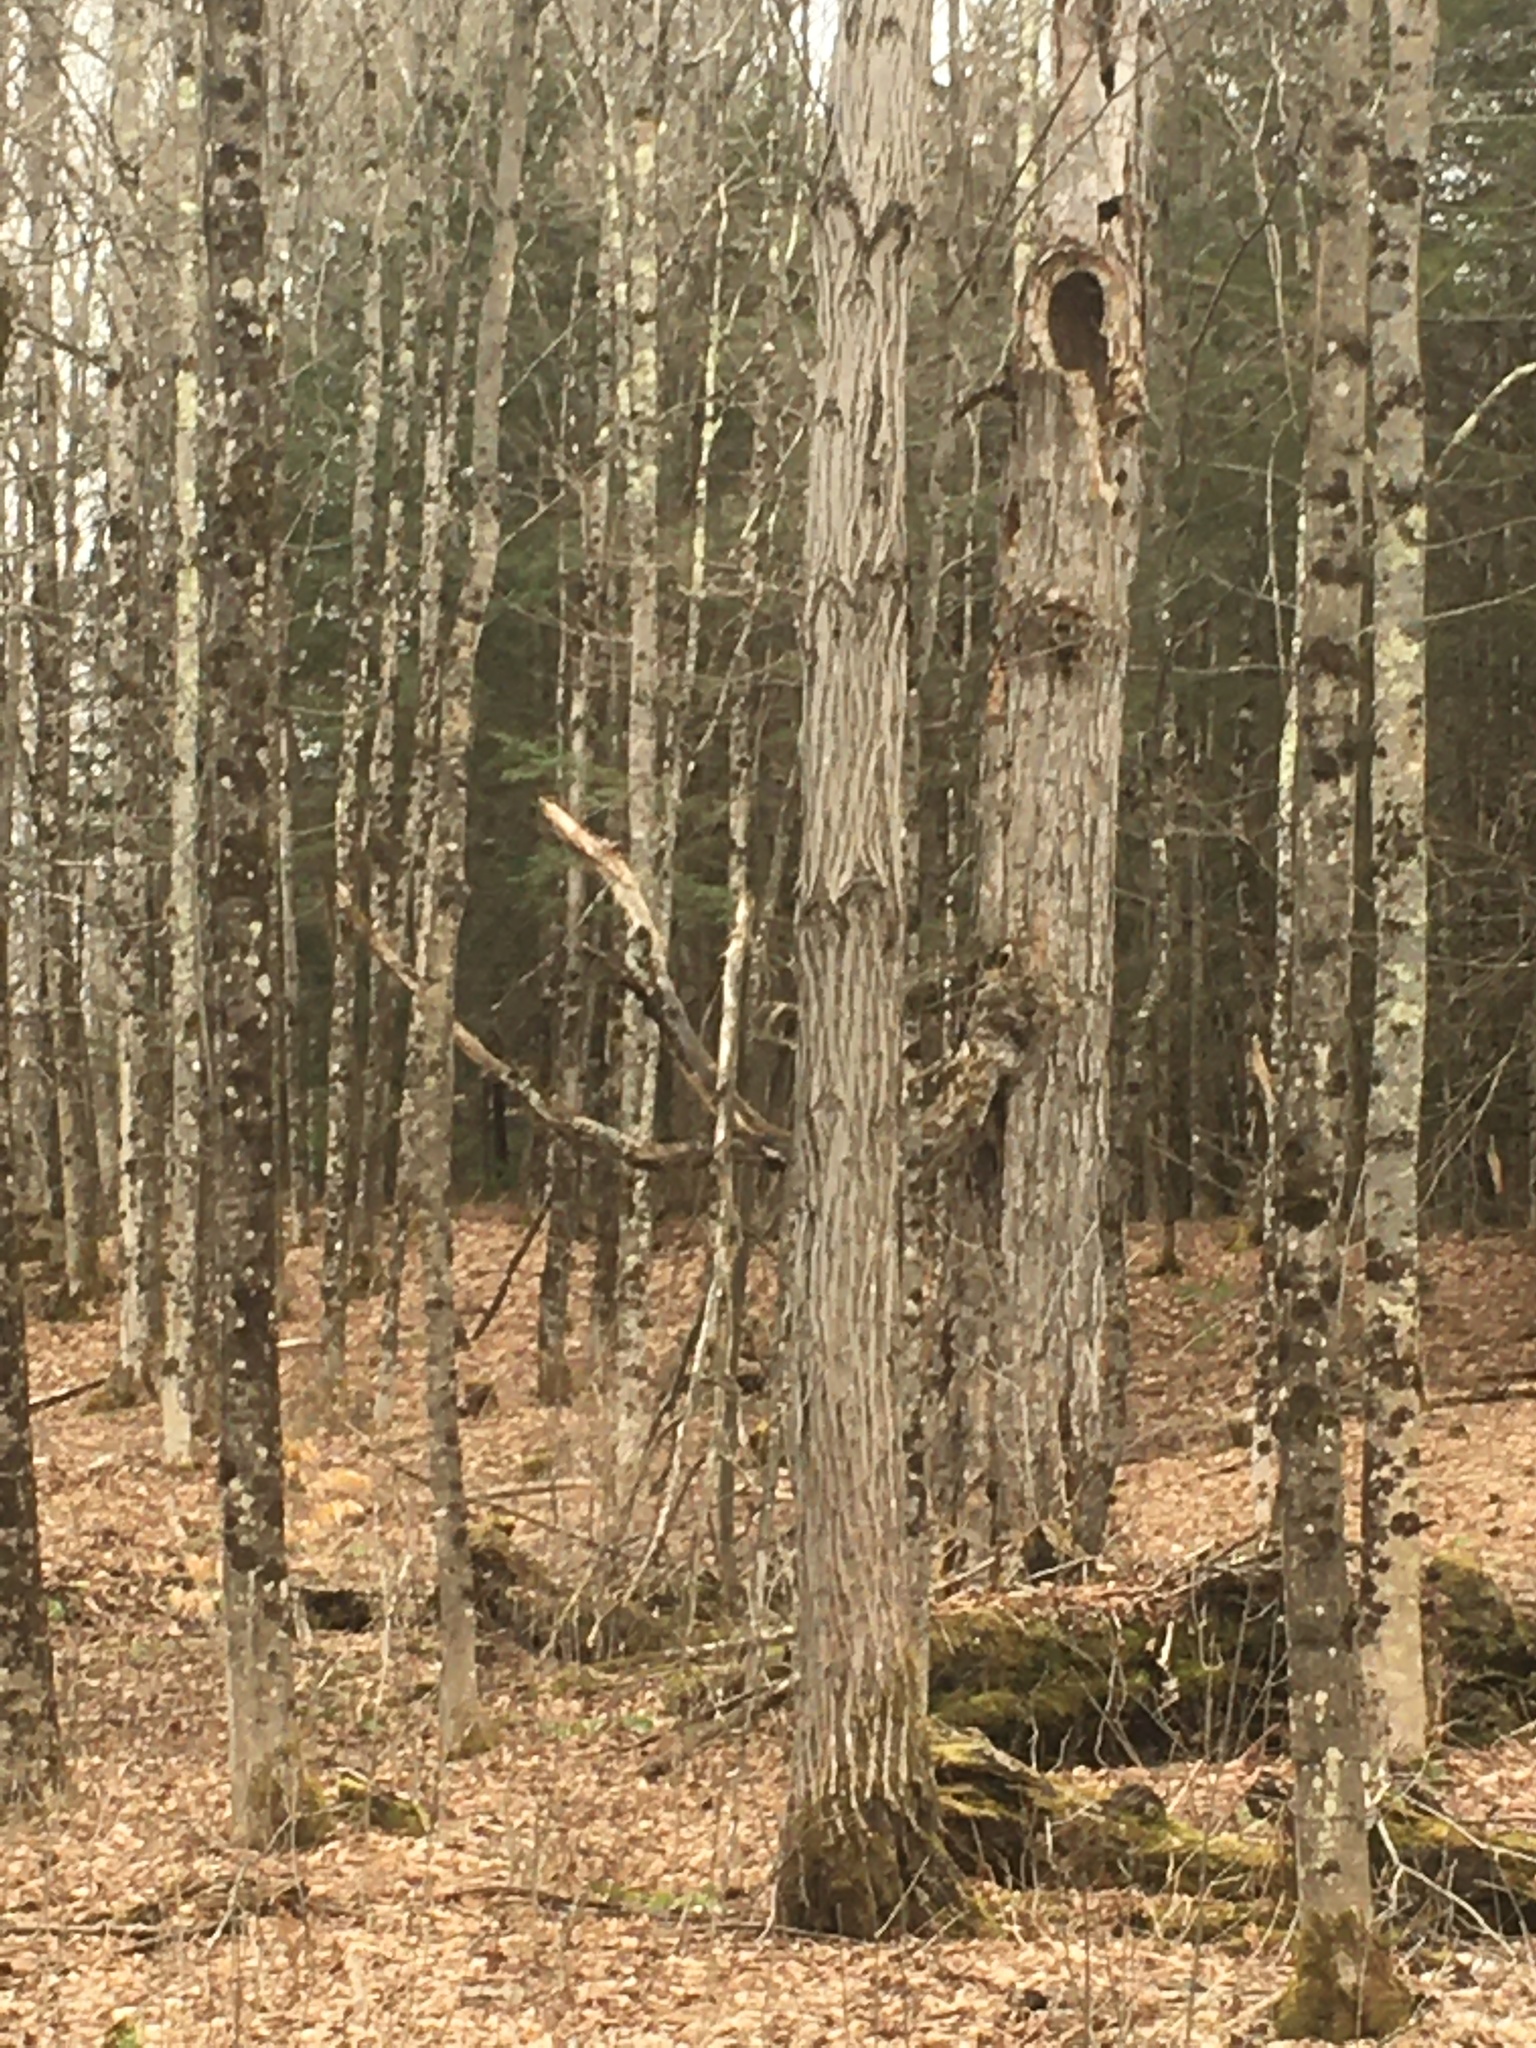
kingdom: Plantae
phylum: Tracheophyta
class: Magnoliopsida
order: Fagales
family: Juglandaceae
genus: Juglans
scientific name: Juglans cinerea
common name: Butternut
